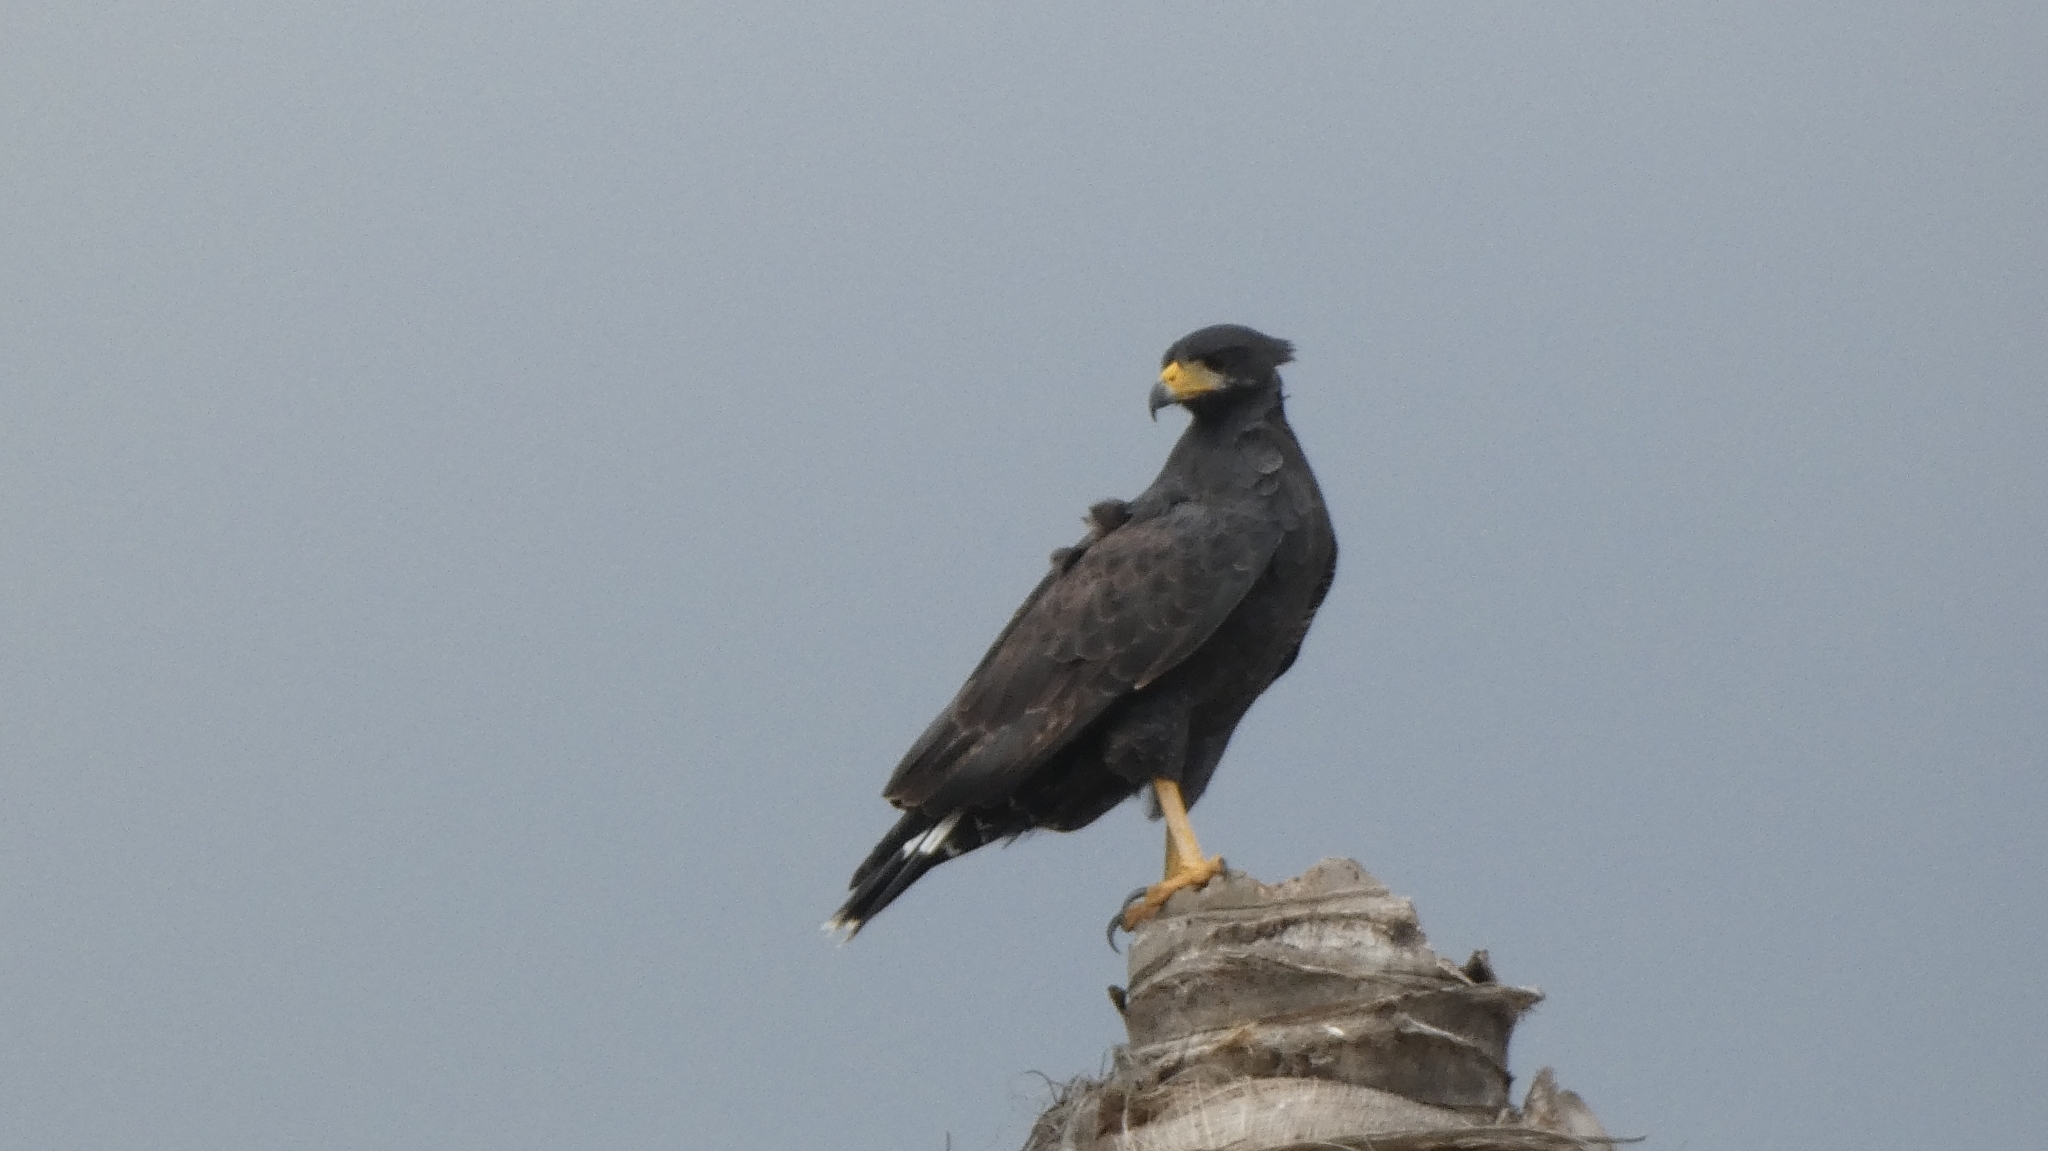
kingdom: Animalia
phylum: Chordata
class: Aves
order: Accipitriformes
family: Accipitridae
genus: Buteogallus
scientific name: Buteogallus anthracinus
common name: Common black hawk
